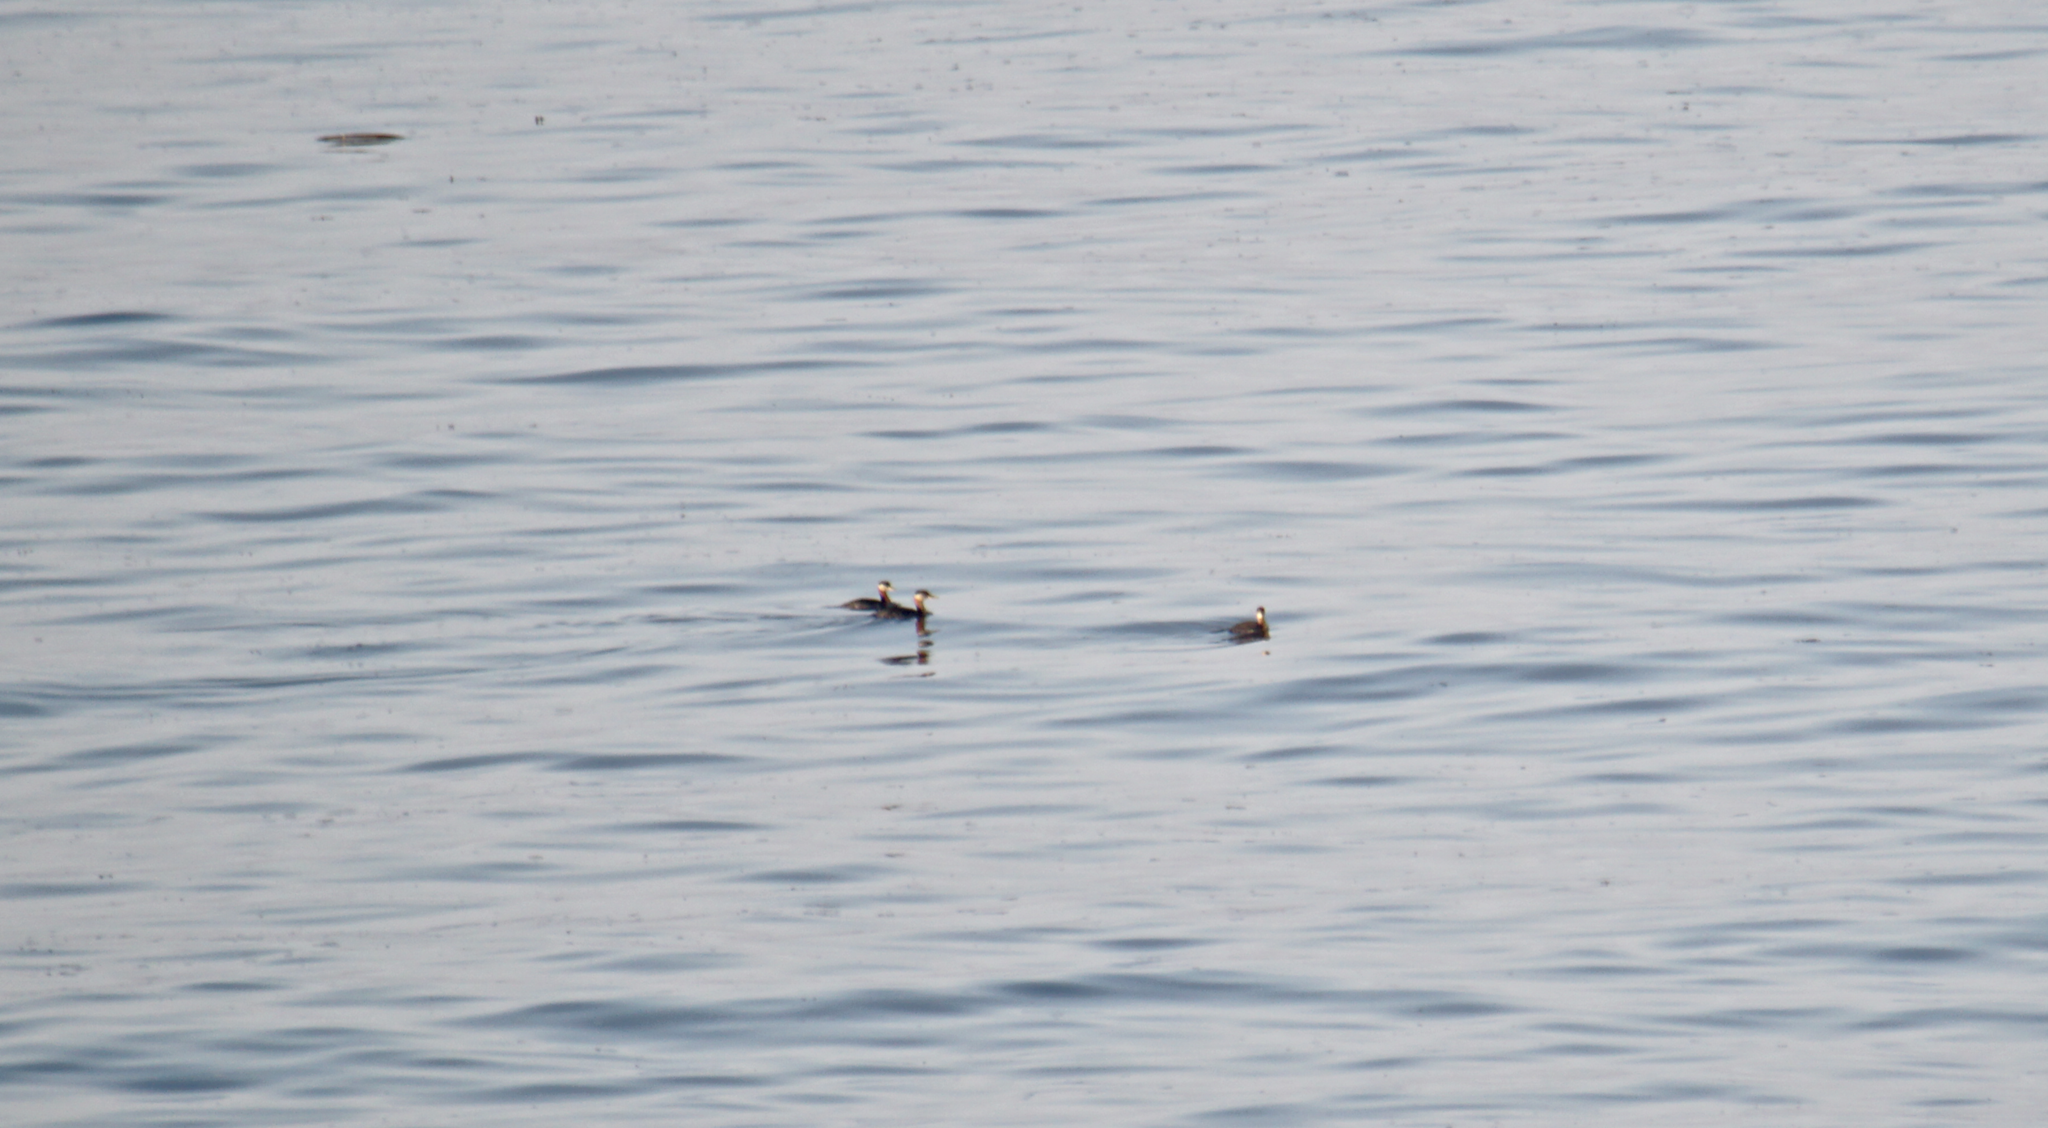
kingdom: Animalia
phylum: Chordata
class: Aves
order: Podicipediformes
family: Podicipedidae
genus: Podiceps
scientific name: Podiceps grisegena
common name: Red-necked grebe
